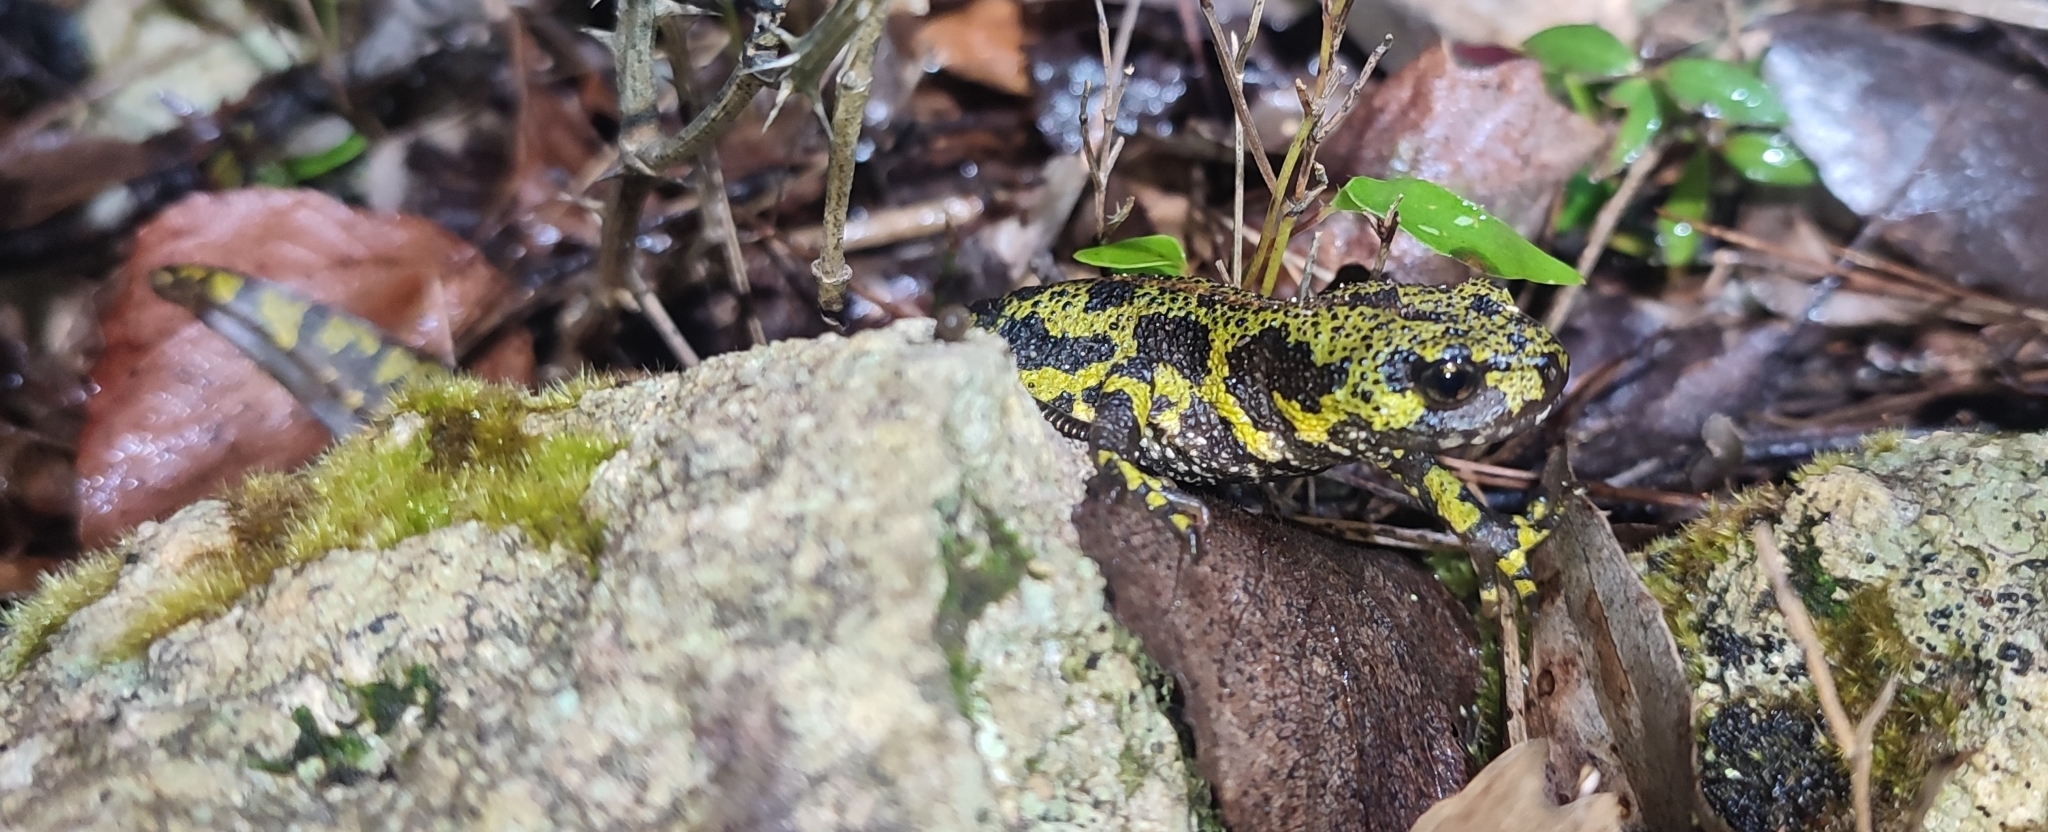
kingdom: Animalia
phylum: Chordata
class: Amphibia
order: Caudata
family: Salamandridae
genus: Triturus
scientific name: Triturus marmoratus
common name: Marbled newt
